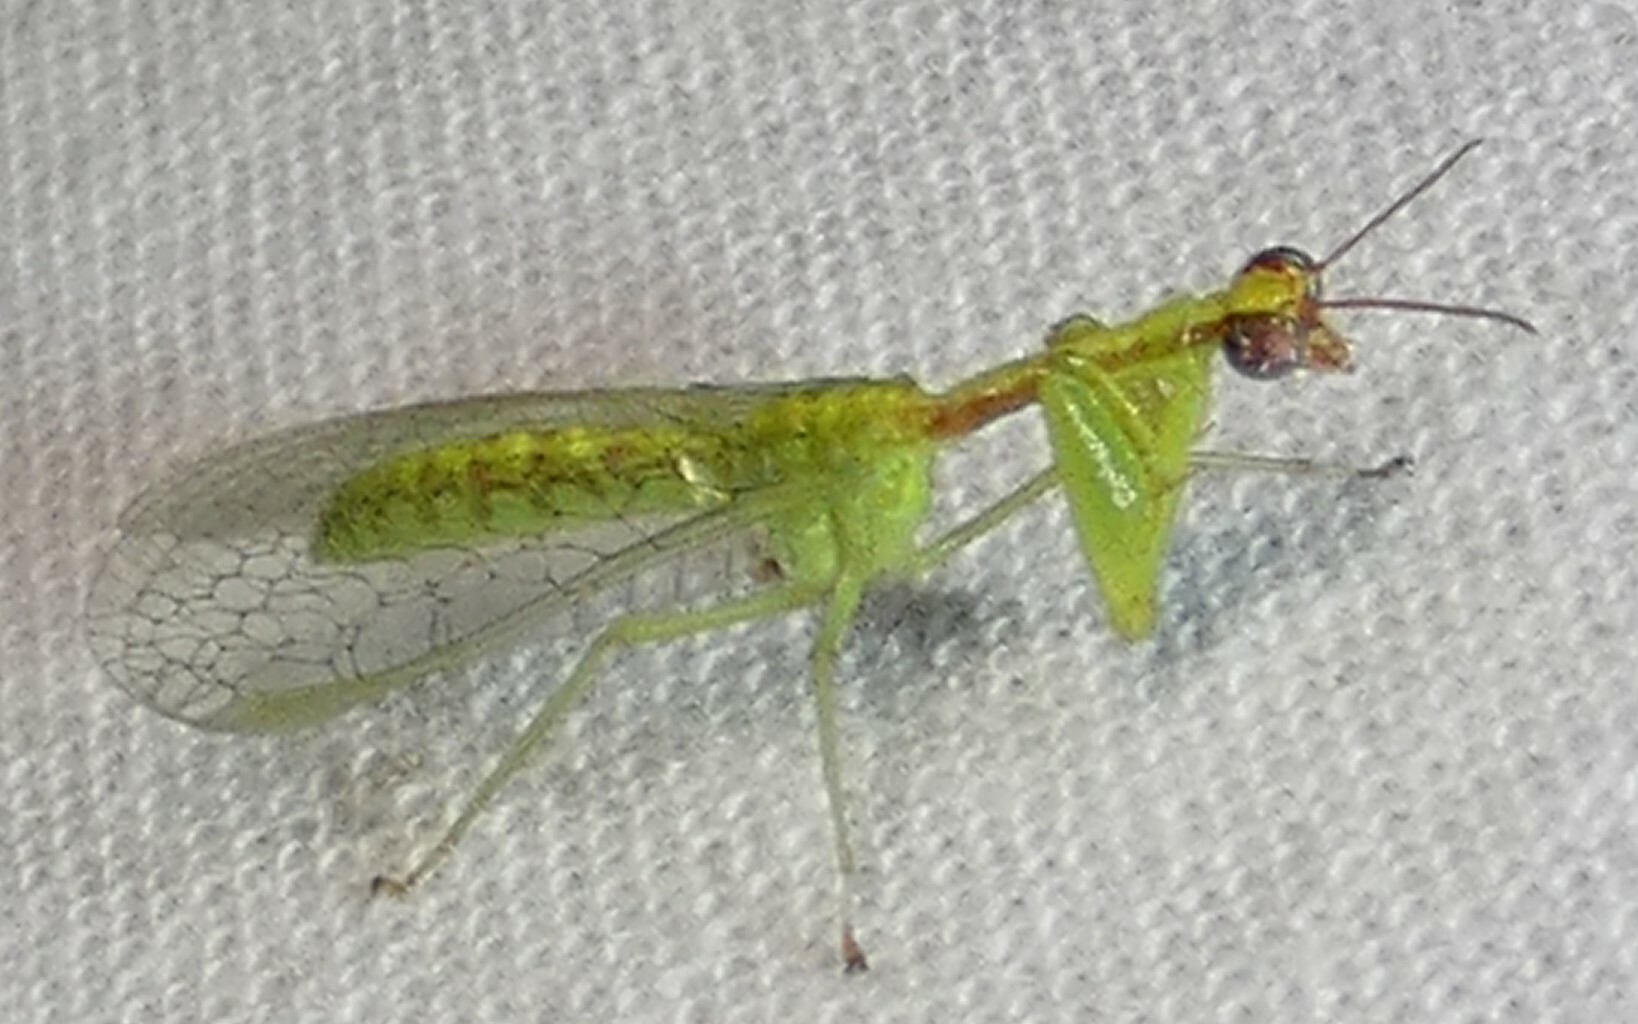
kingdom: Animalia
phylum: Arthropoda
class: Insecta
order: Neuroptera
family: Mantispidae
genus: Zeugomantispa
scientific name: Zeugomantispa minuta
